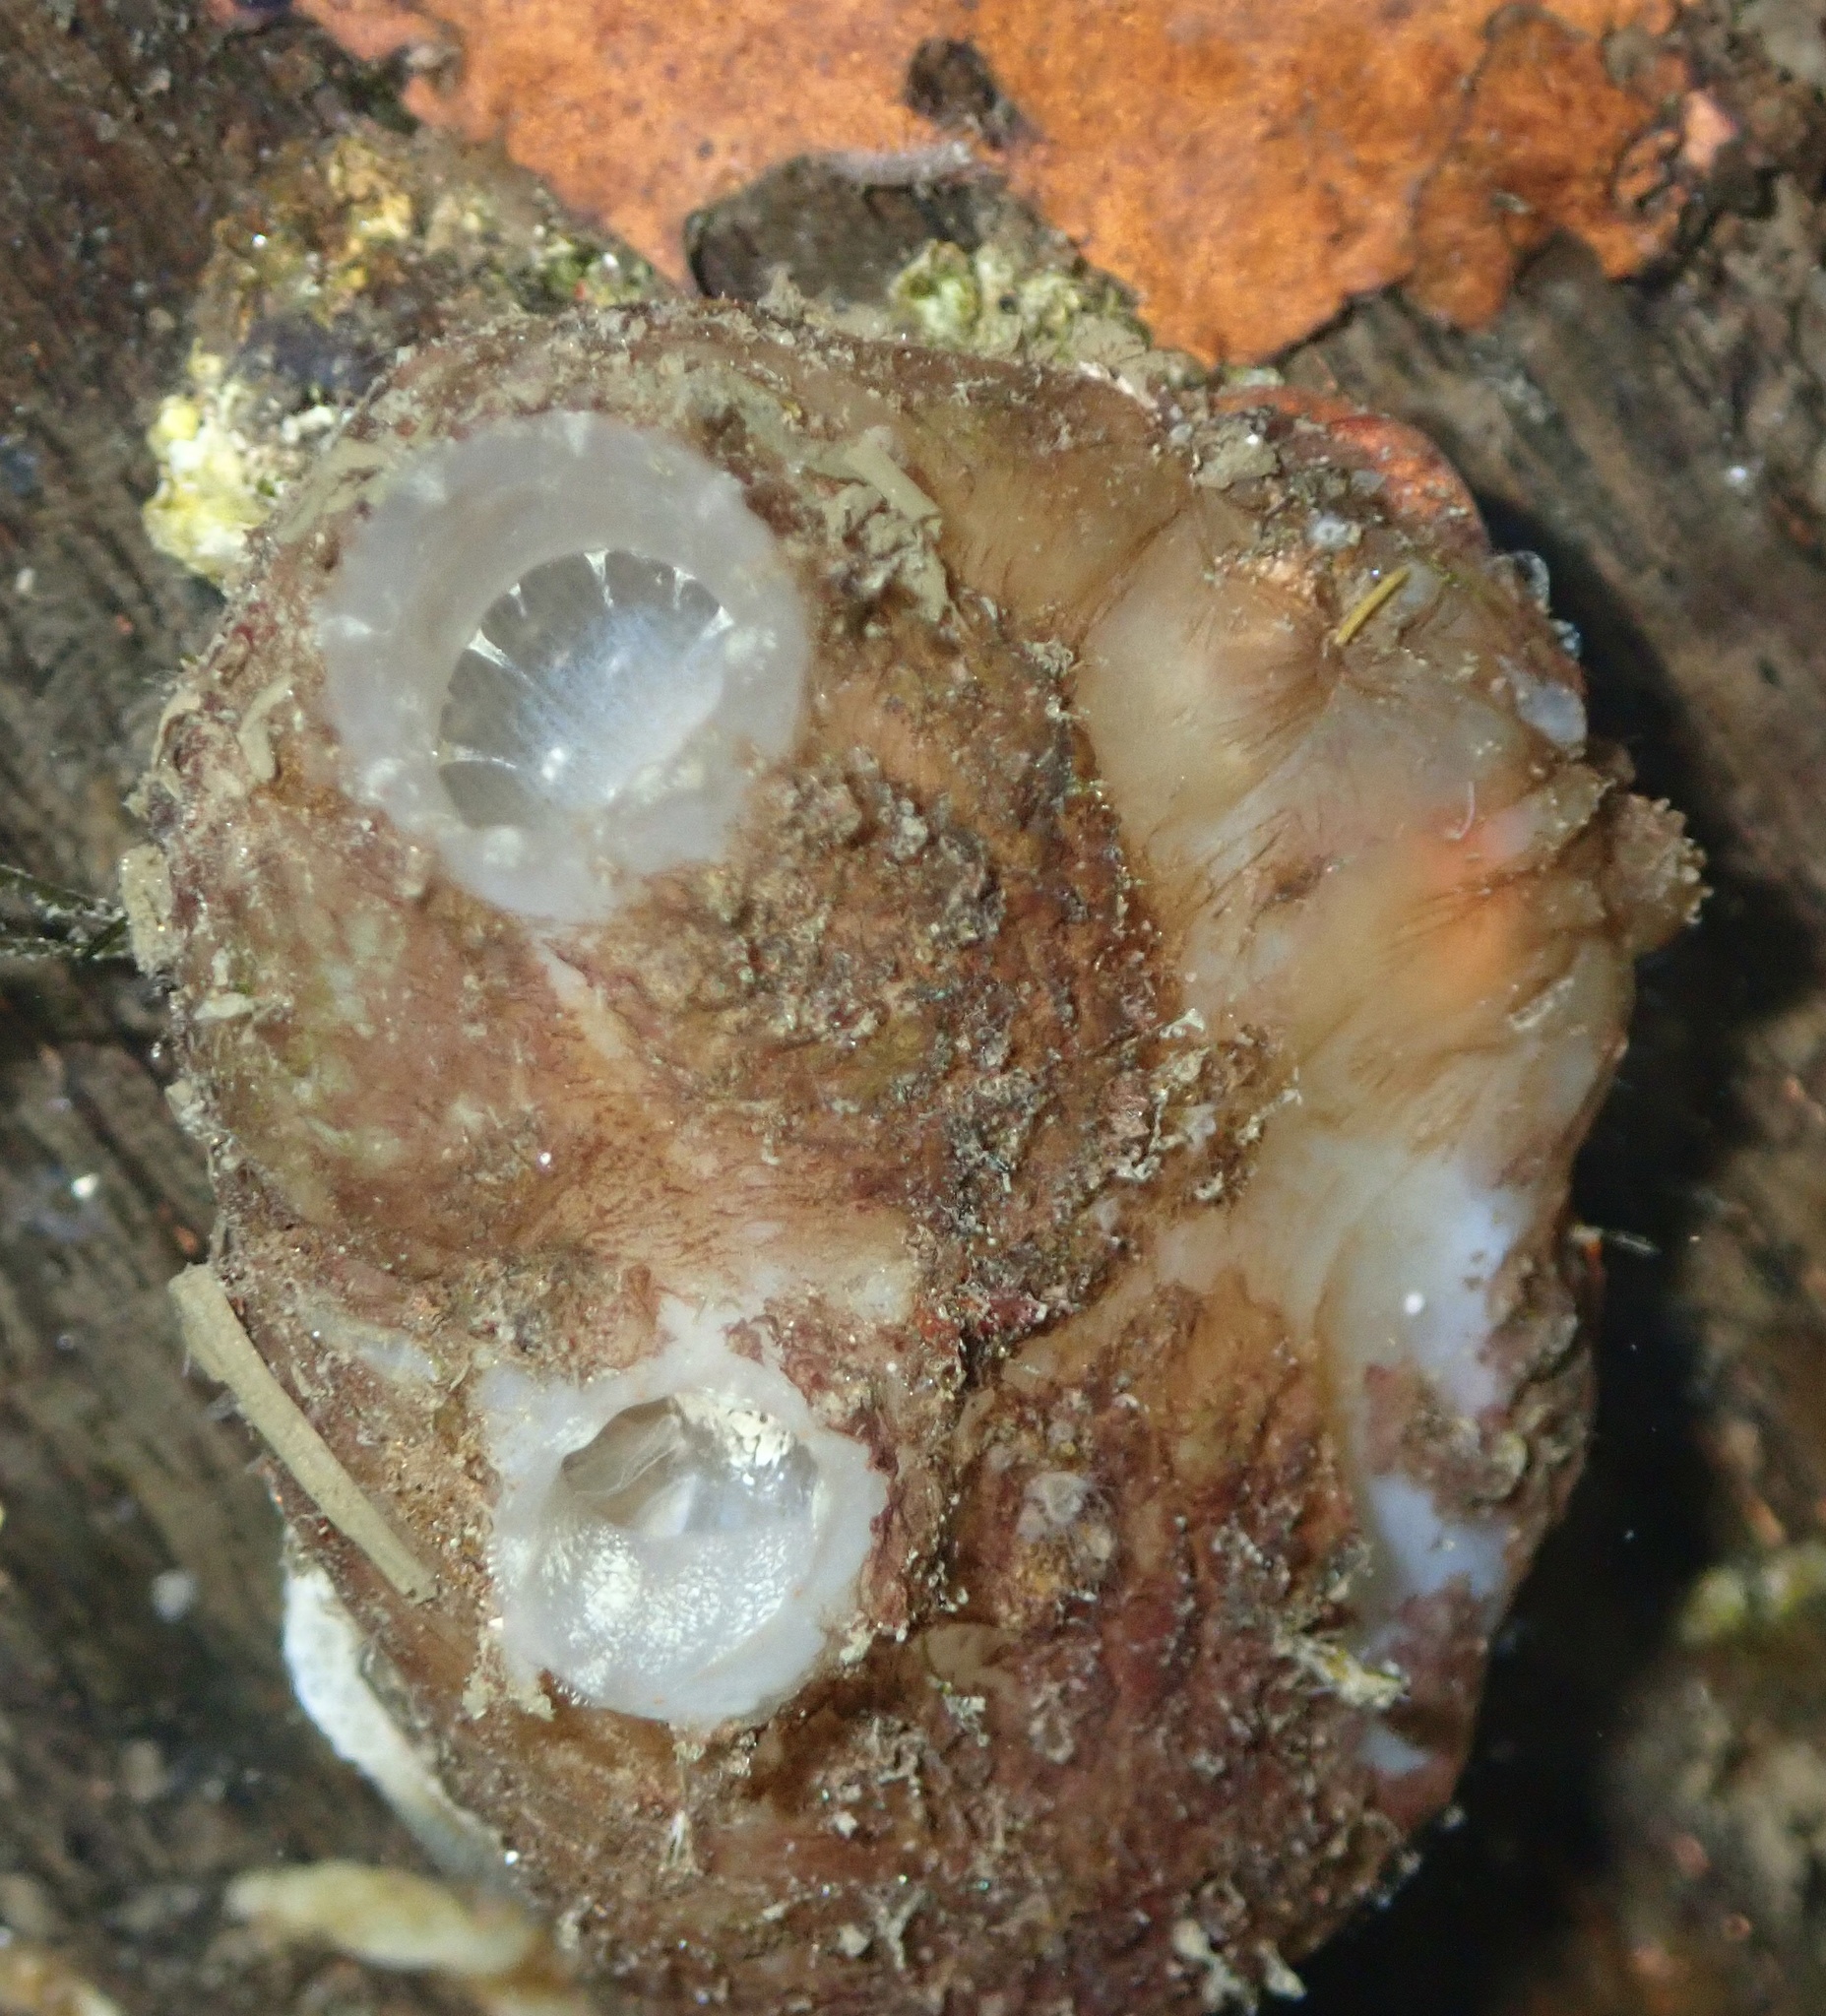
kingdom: Animalia
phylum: Chordata
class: Ascidiacea
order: Phlebobranchia
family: Ascidiidae
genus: Ascidiella
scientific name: Ascidiella aspersa
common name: Dirty sea-squirt
